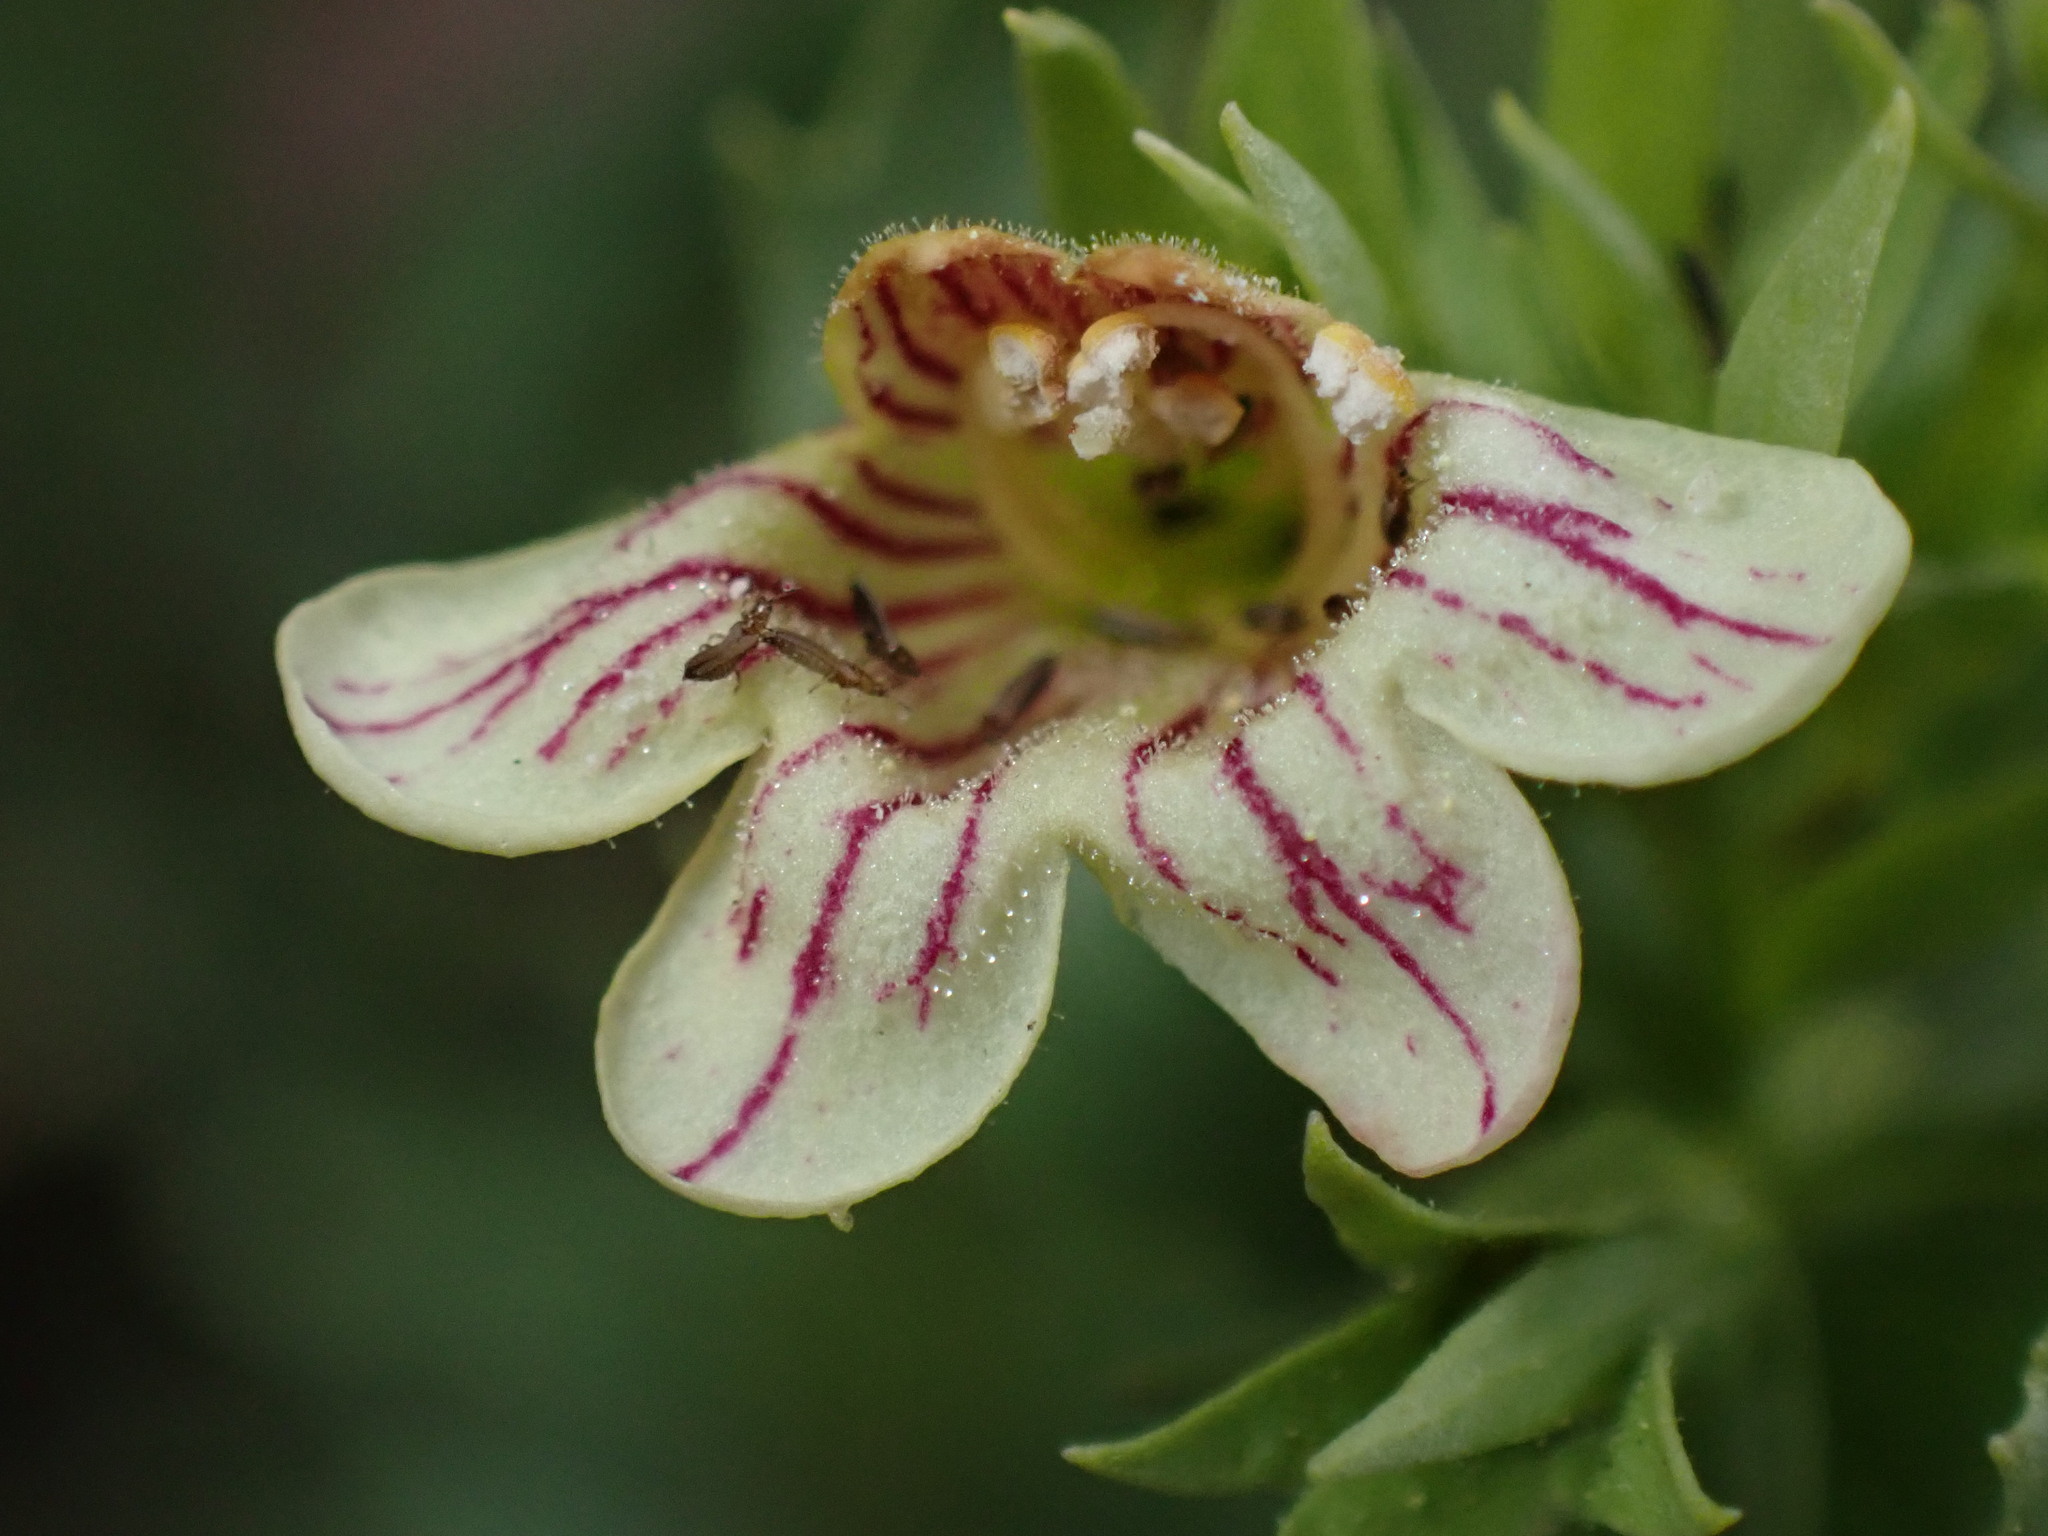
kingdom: Plantae
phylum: Tracheophyta
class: Magnoliopsida
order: Lamiales
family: Plantaginaceae
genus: Penstemon
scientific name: Penstemon deustus
